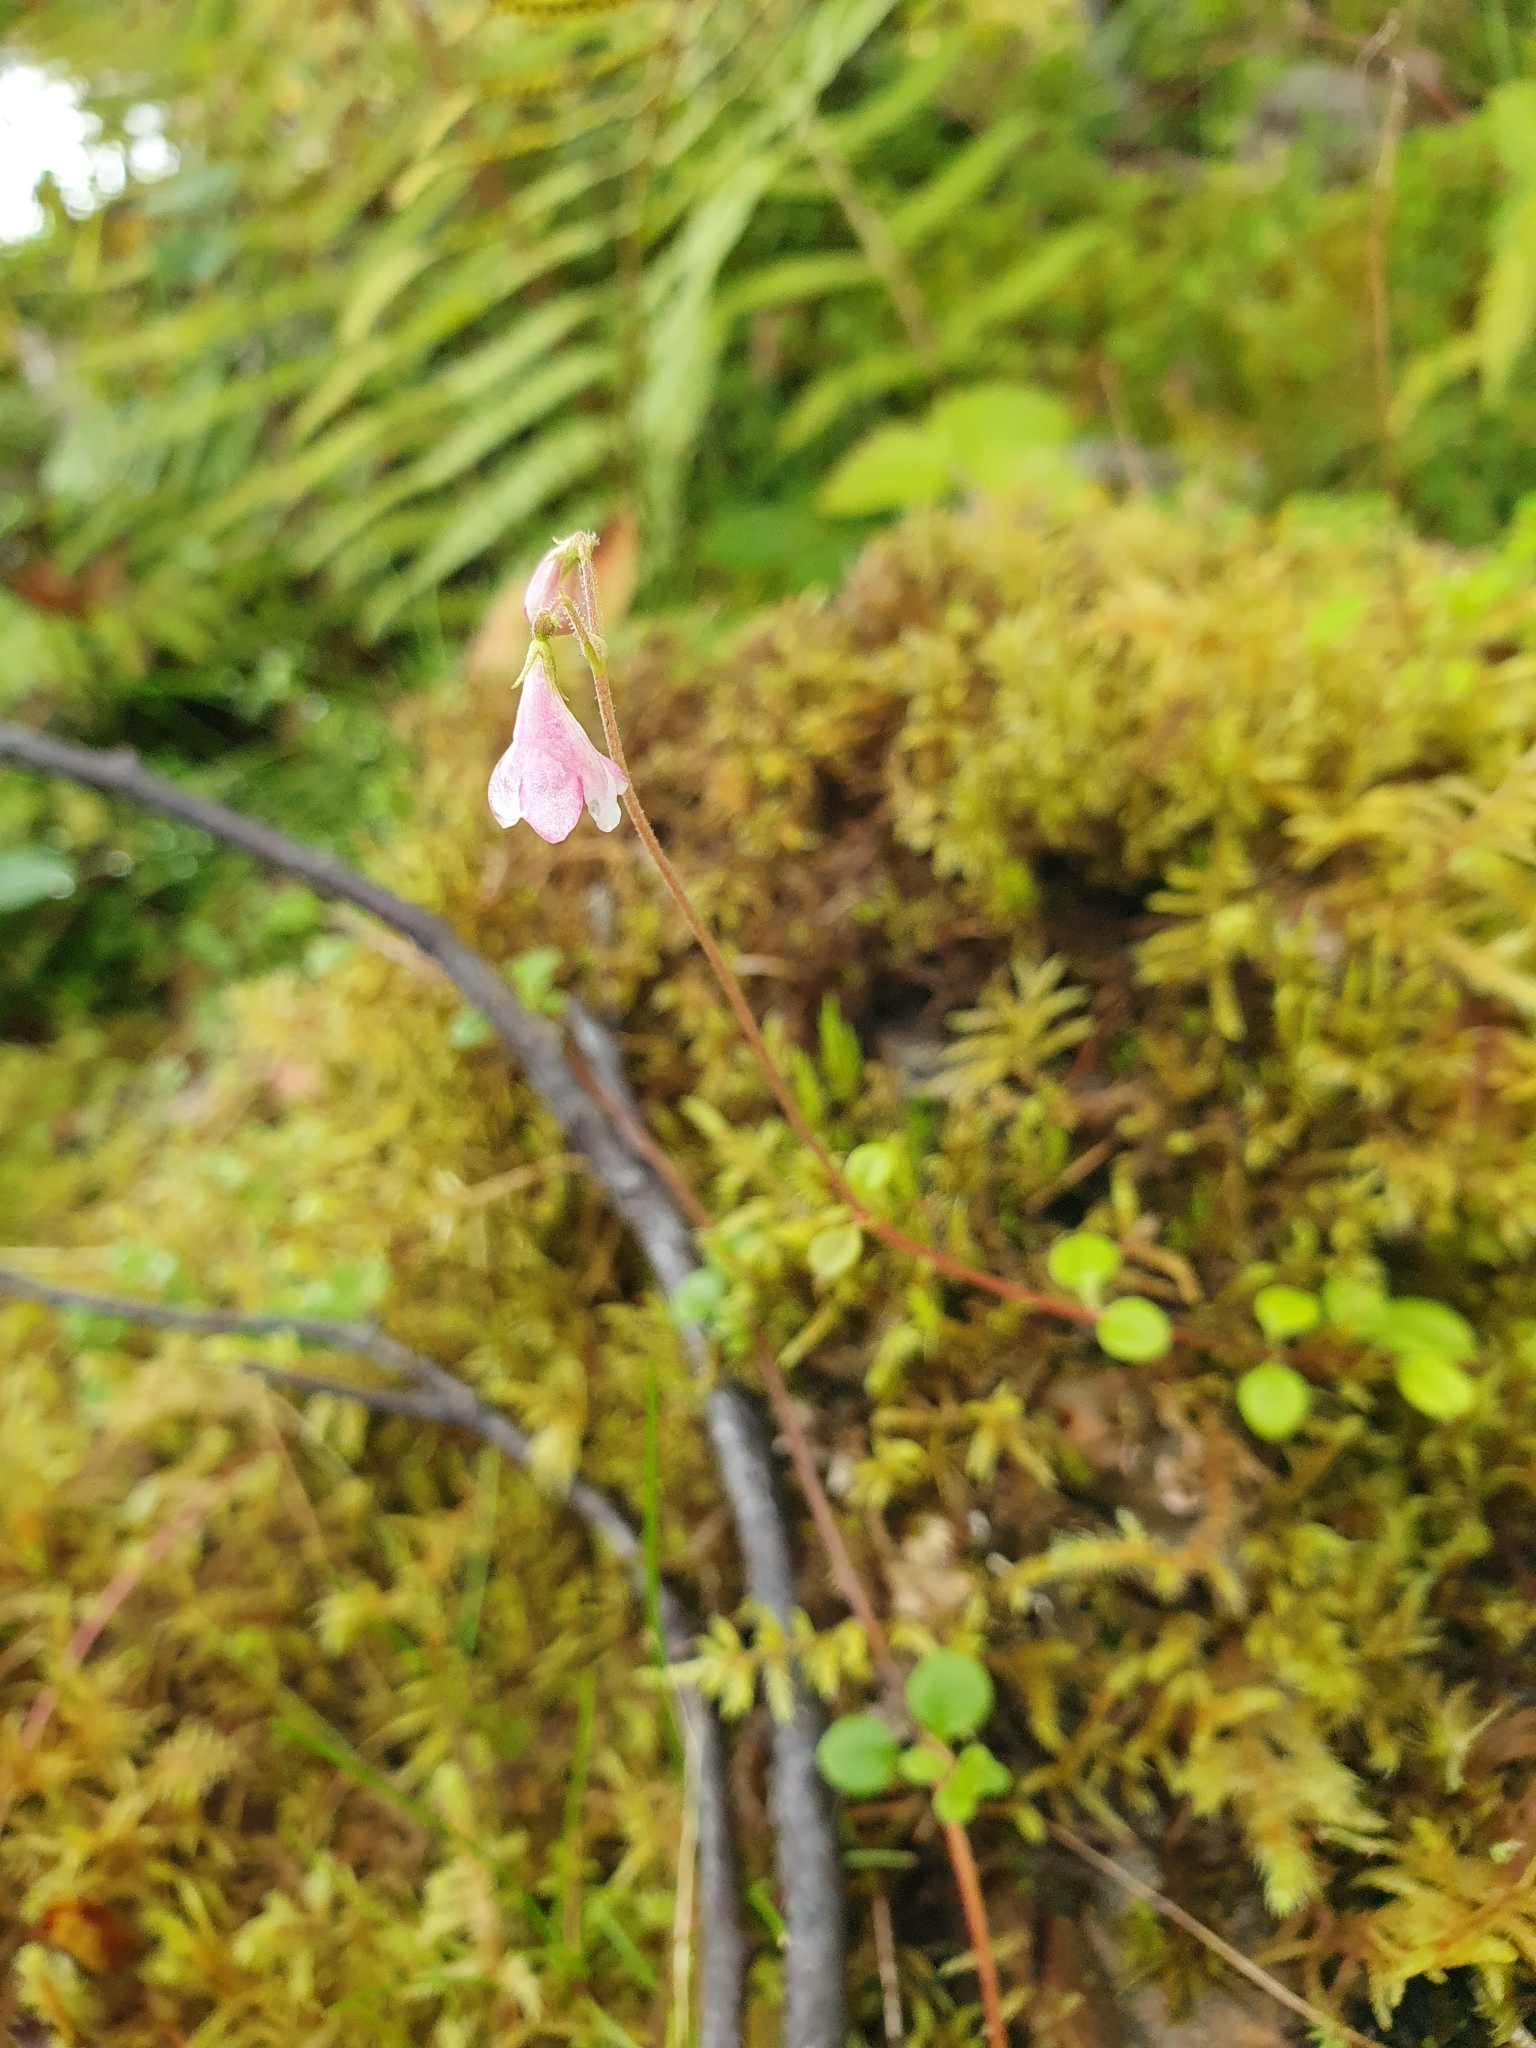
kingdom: Plantae
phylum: Tracheophyta
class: Magnoliopsida
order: Dipsacales
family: Caprifoliaceae
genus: Linnaea
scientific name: Linnaea borealis
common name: Twinflower
